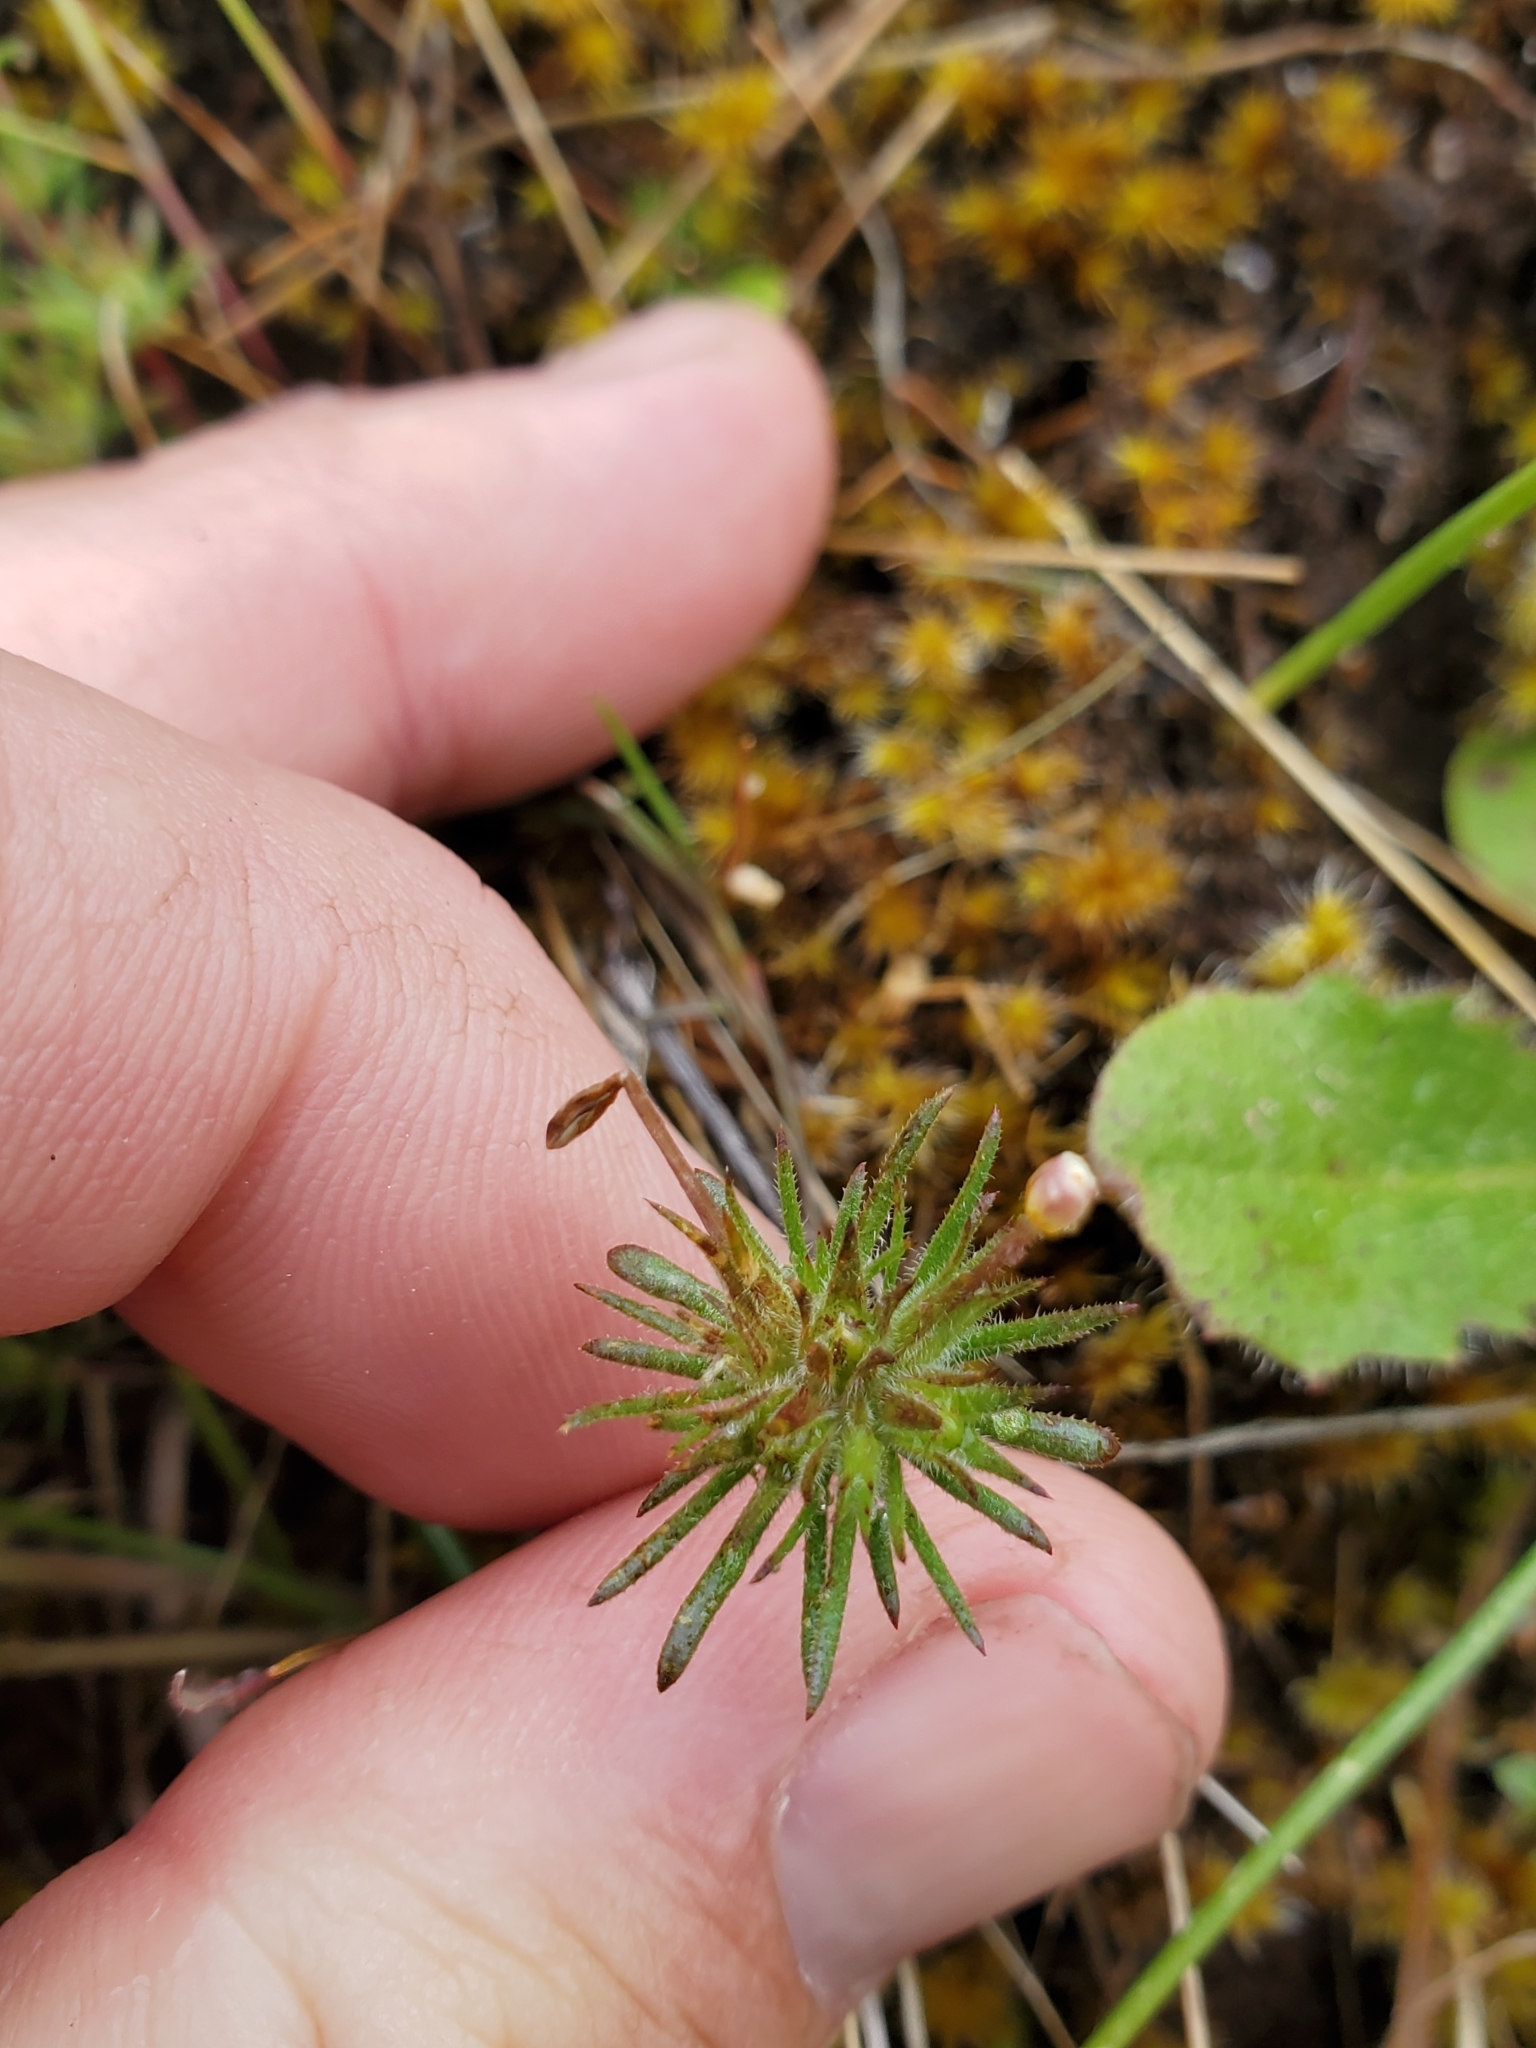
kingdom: Plantae
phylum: Tracheophyta
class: Magnoliopsida
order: Ericales
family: Polemoniaceae
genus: Leptosiphon
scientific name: Leptosiphon bicolor
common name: True babystars
